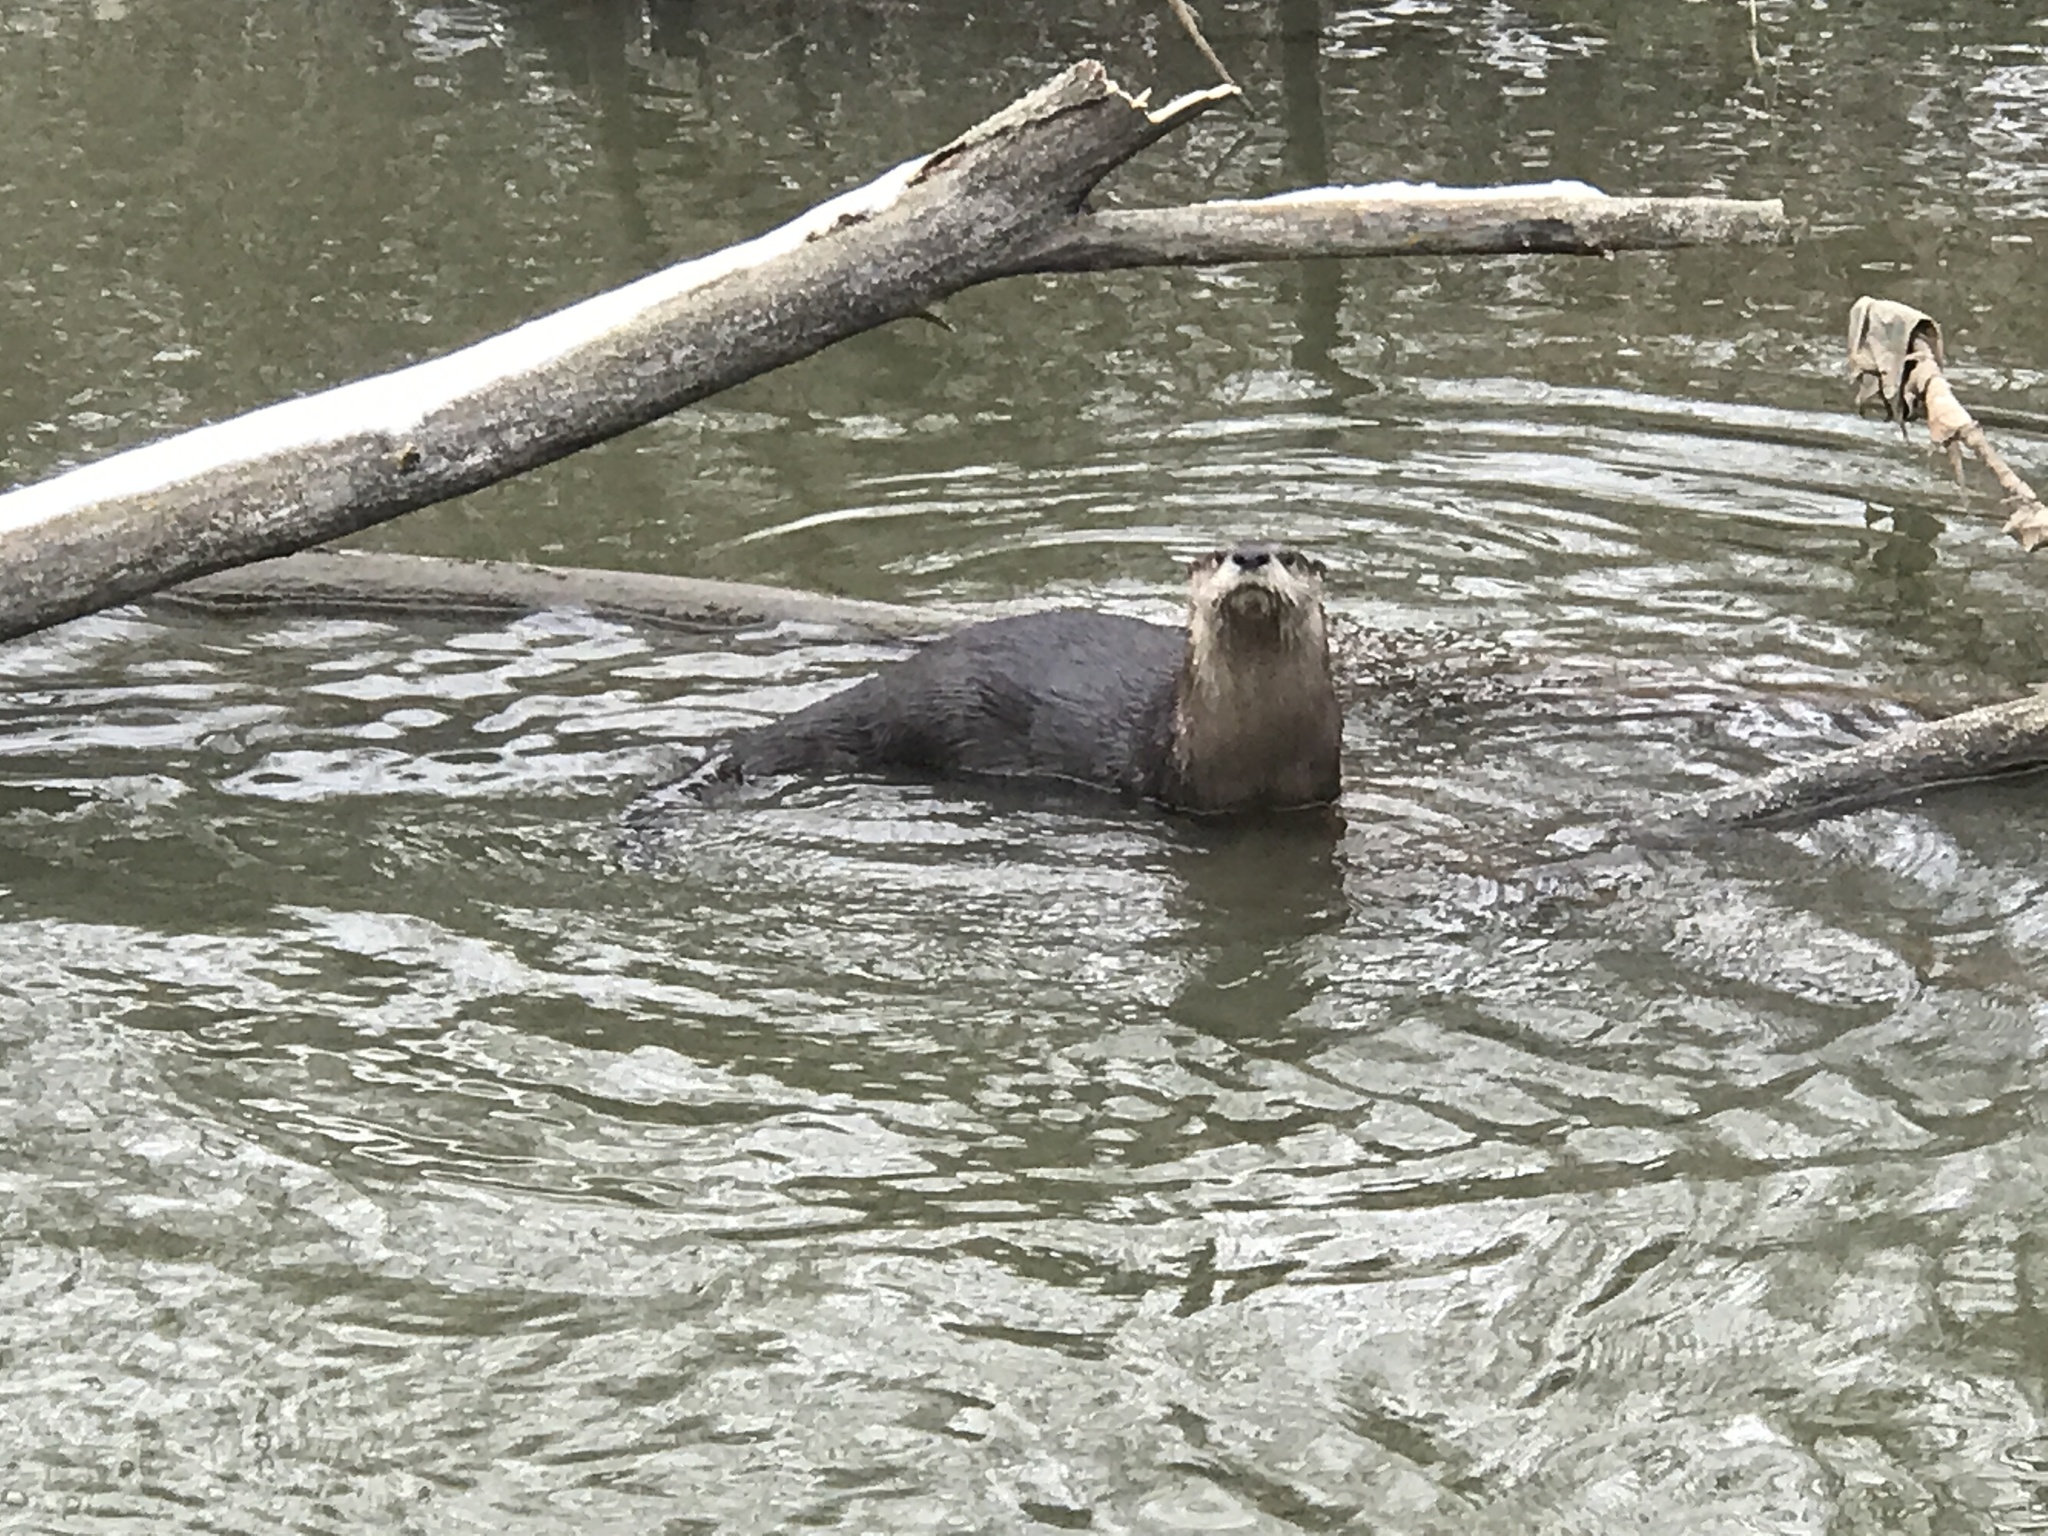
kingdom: Animalia
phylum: Chordata
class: Mammalia
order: Carnivora
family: Mustelidae
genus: Lontra
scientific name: Lontra canadensis
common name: North american river otter
